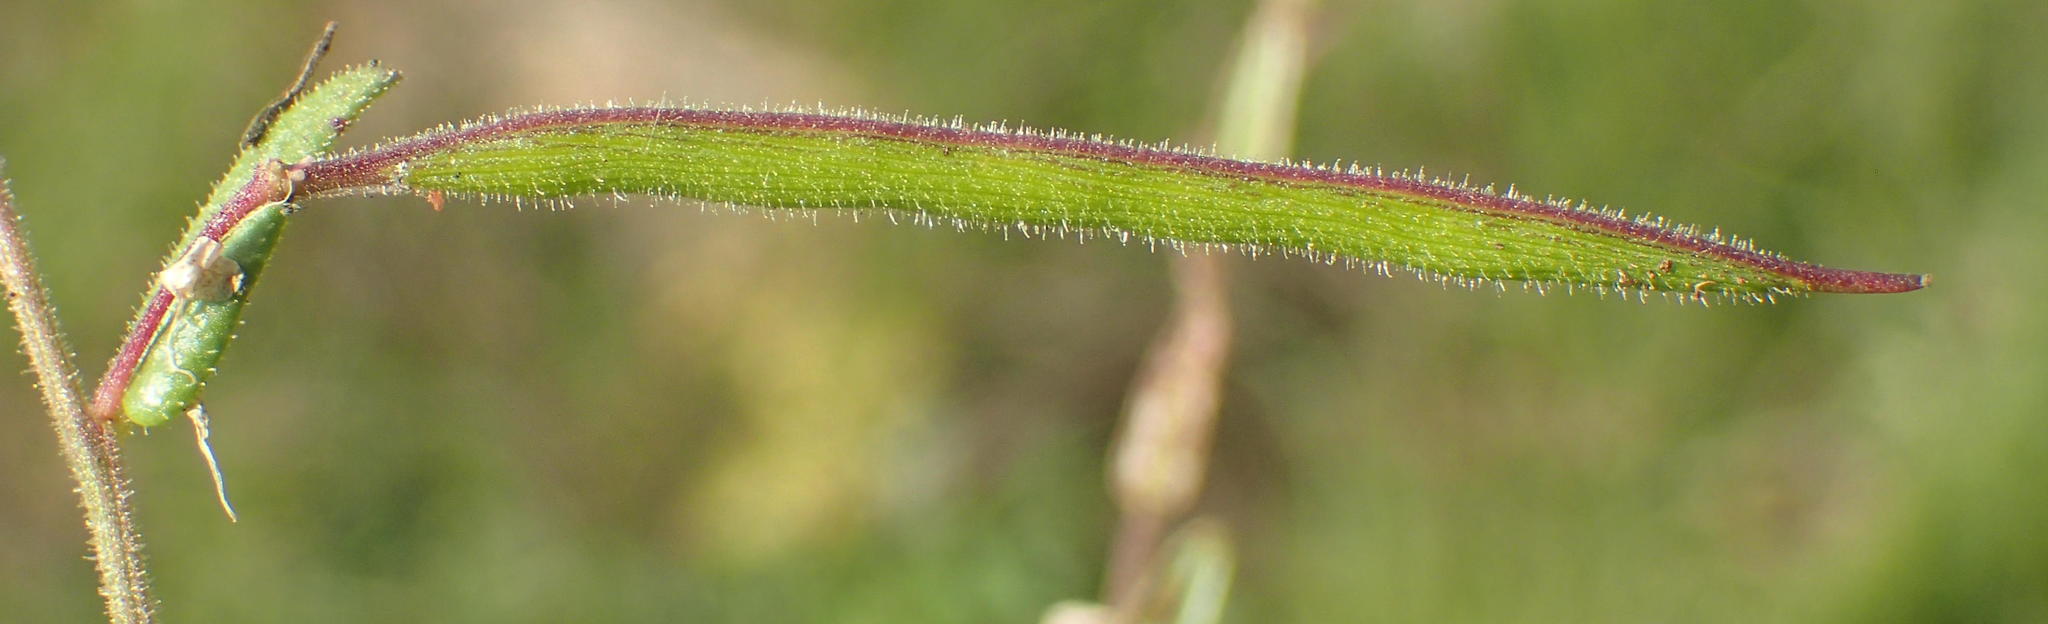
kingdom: Plantae
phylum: Tracheophyta
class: Magnoliopsida
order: Brassicales
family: Cleomaceae
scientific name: Cleomaceae
